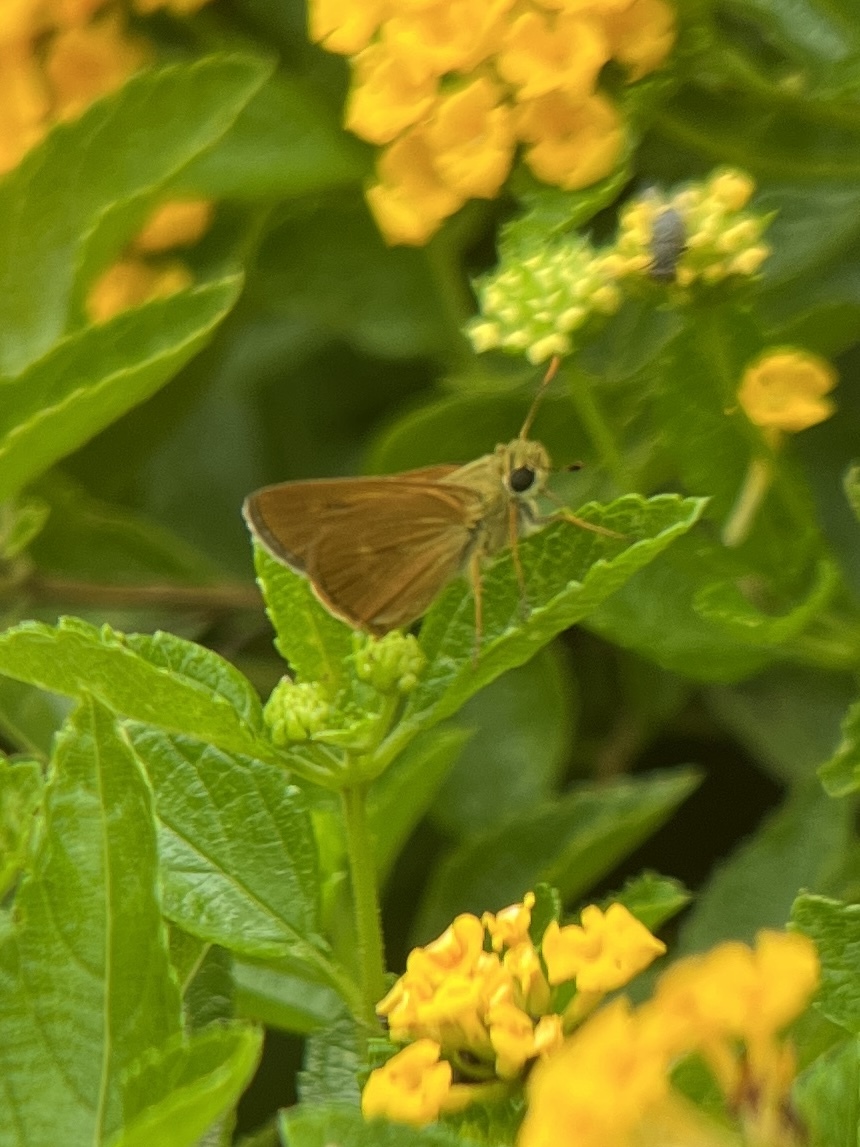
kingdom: Animalia
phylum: Arthropoda
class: Insecta
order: Lepidoptera
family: Hesperiidae
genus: Polites
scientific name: Polites otho
